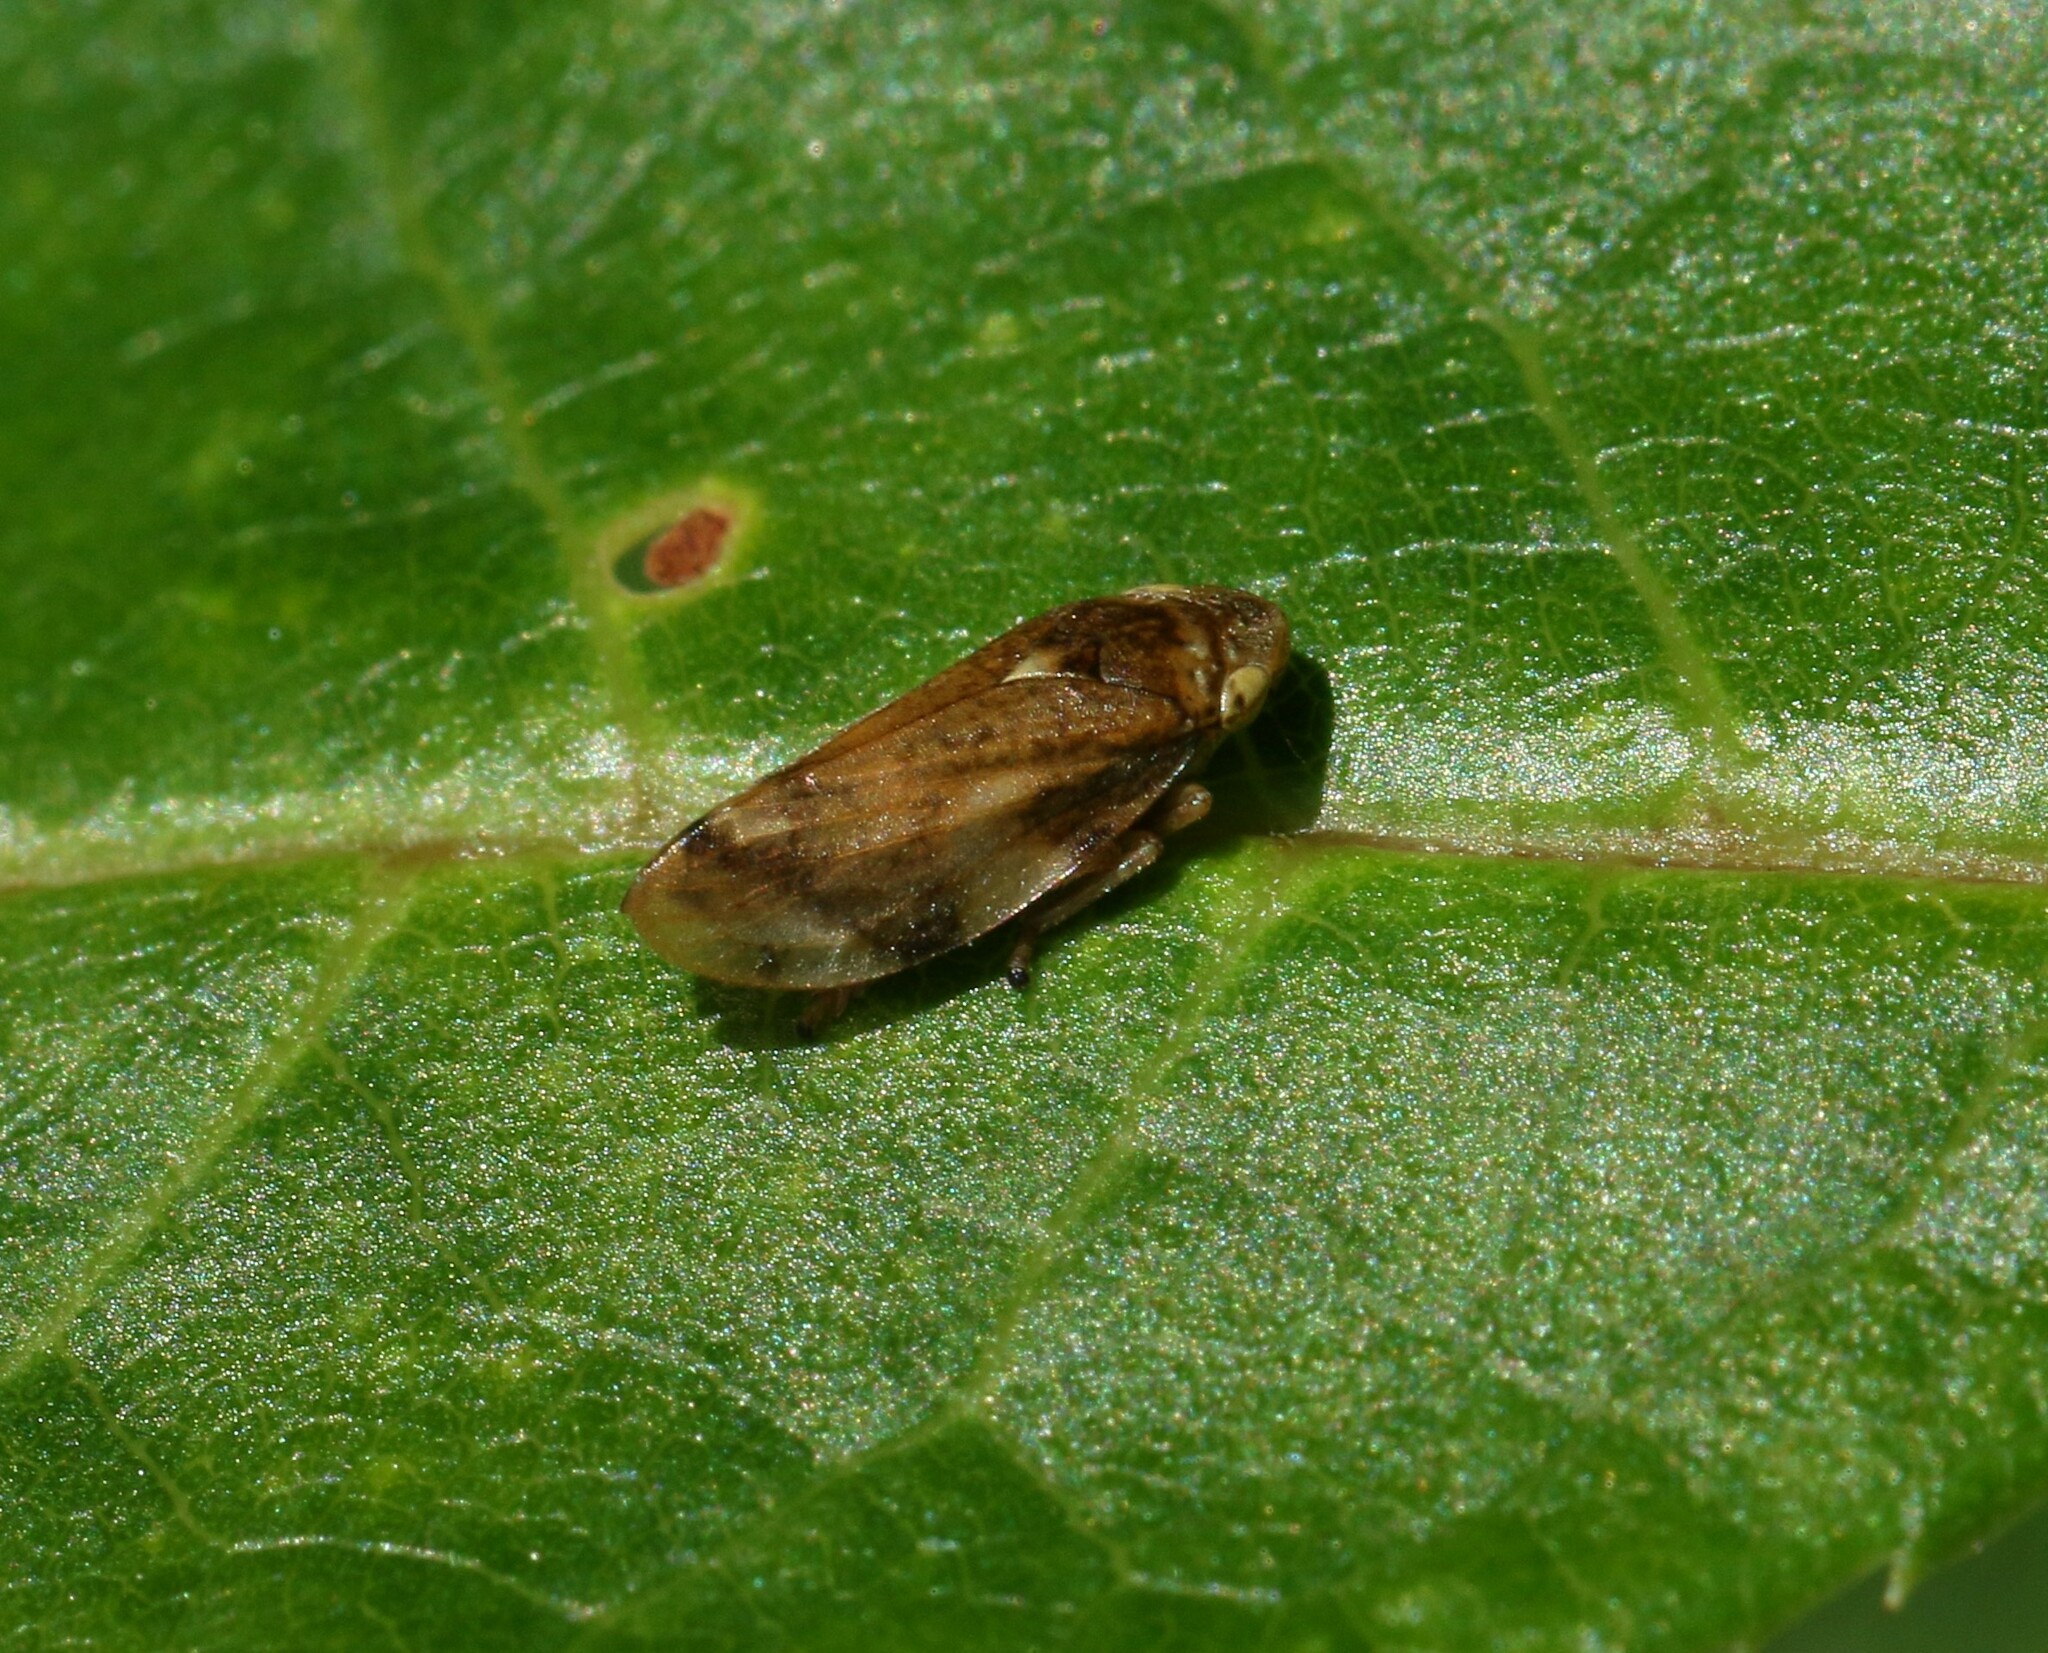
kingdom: Animalia
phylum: Arthropoda
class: Insecta
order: Hemiptera
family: Aphrophoridae
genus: Philaenus
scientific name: Philaenus spumarius
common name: Meadow spittlebug
